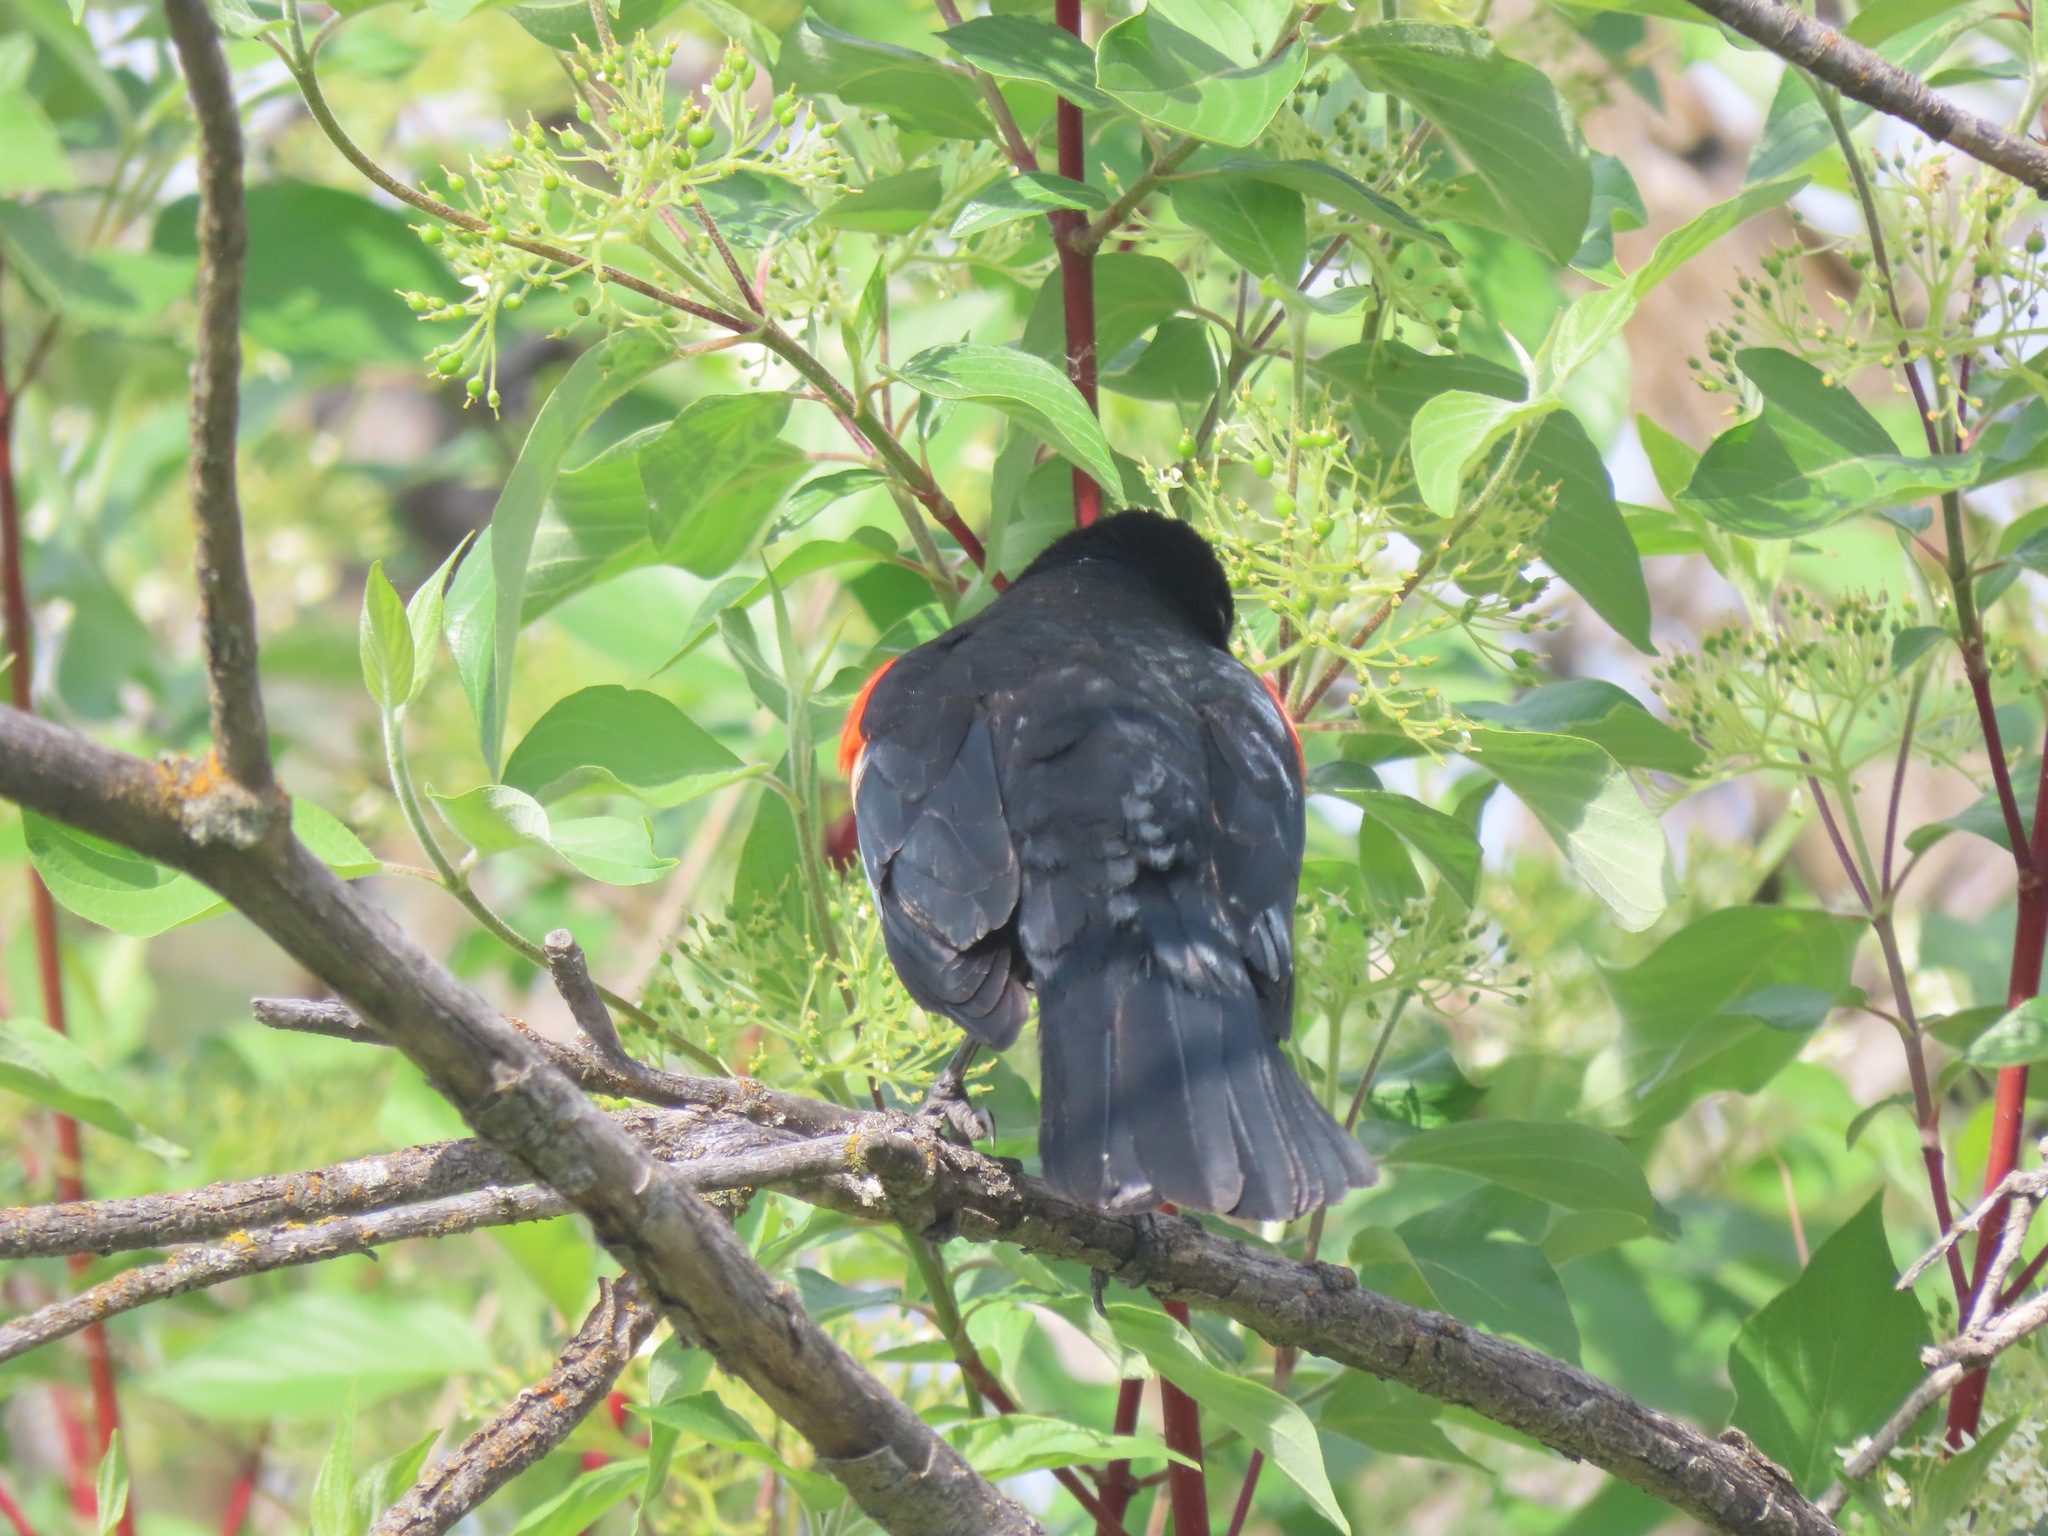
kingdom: Animalia
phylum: Chordata
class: Aves
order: Passeriformes
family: Icteridae
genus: Agelaius
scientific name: Agelaius phoeniceus
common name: Red-winged blackbird
